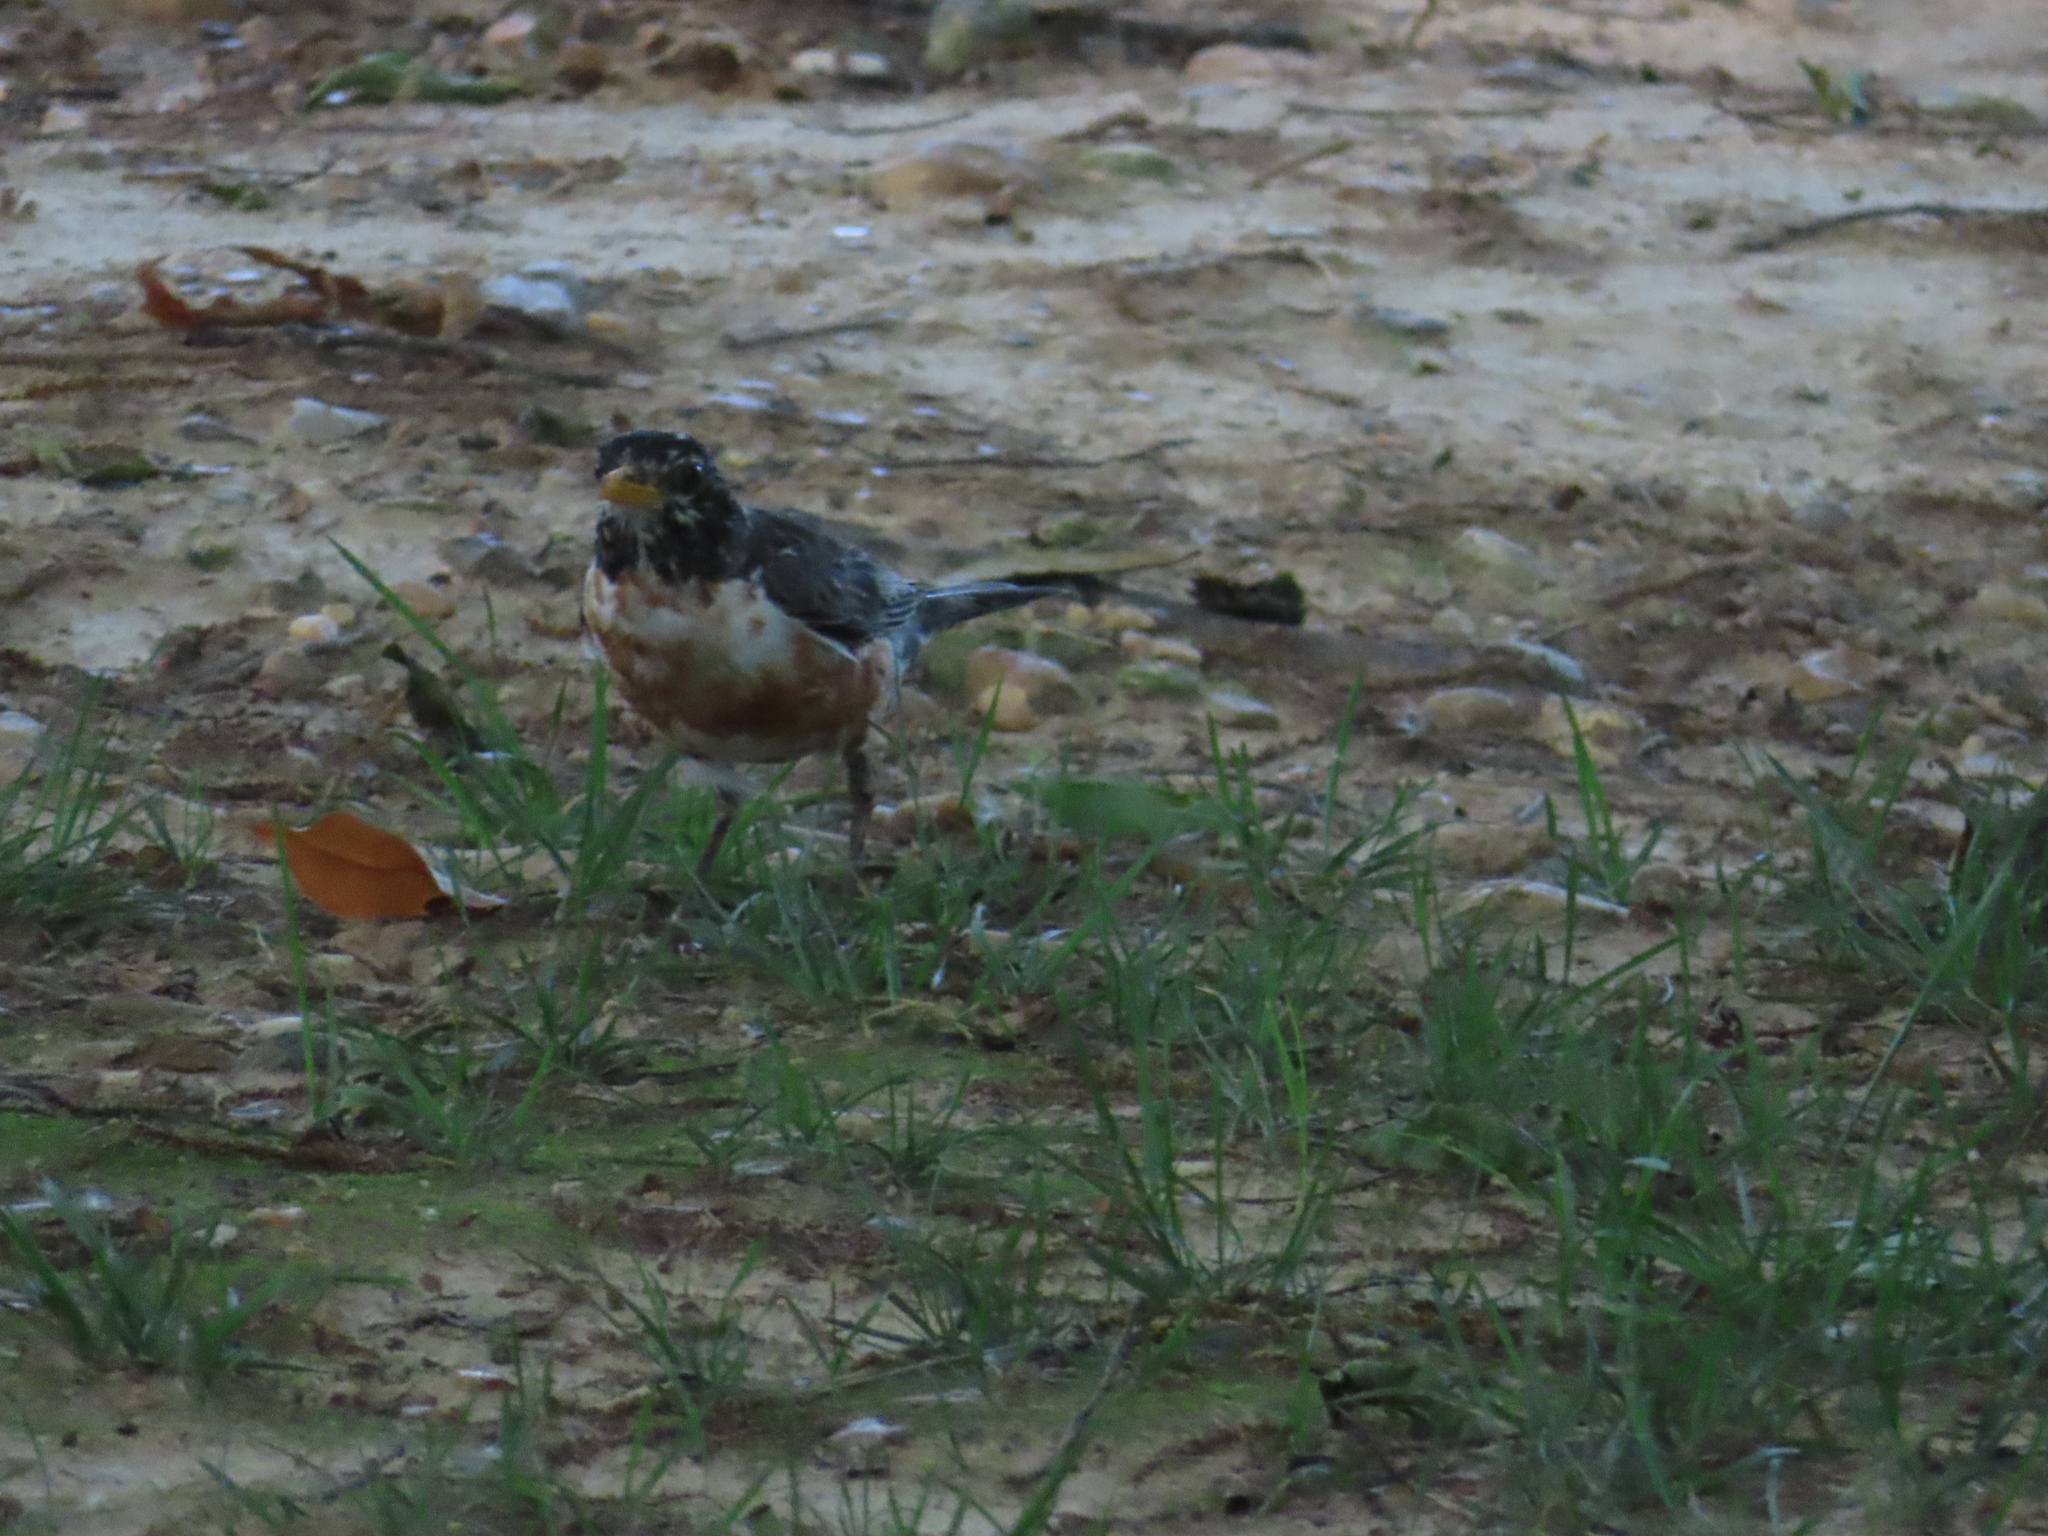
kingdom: Animalia
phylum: Chordata
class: Aves
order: Passeriformes
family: Turdidae
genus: Turdus
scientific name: Turdus migratorius
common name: American robin
